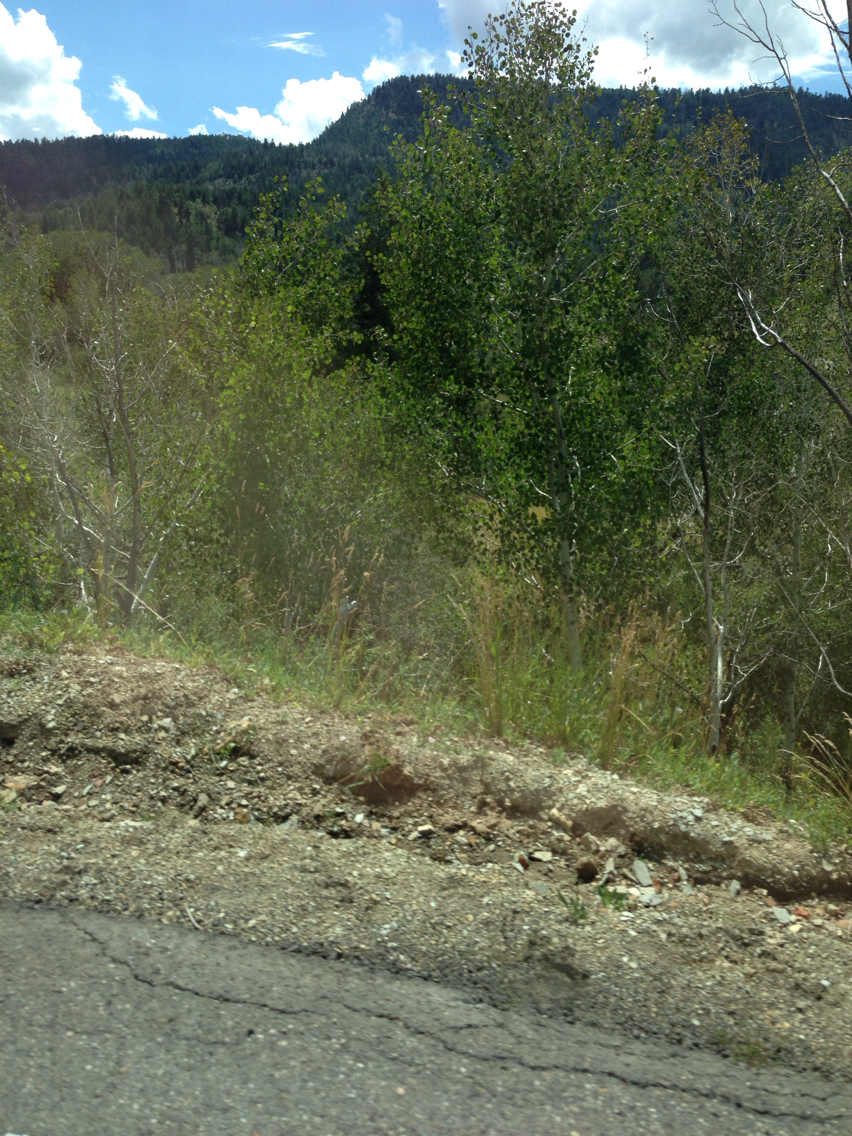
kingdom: Plantae
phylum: Tracheophyta
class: Magnoliopsida
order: Malpighiales
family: Salicaceae
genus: Populus
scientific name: Populus tremuloides
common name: Quaking aspen
